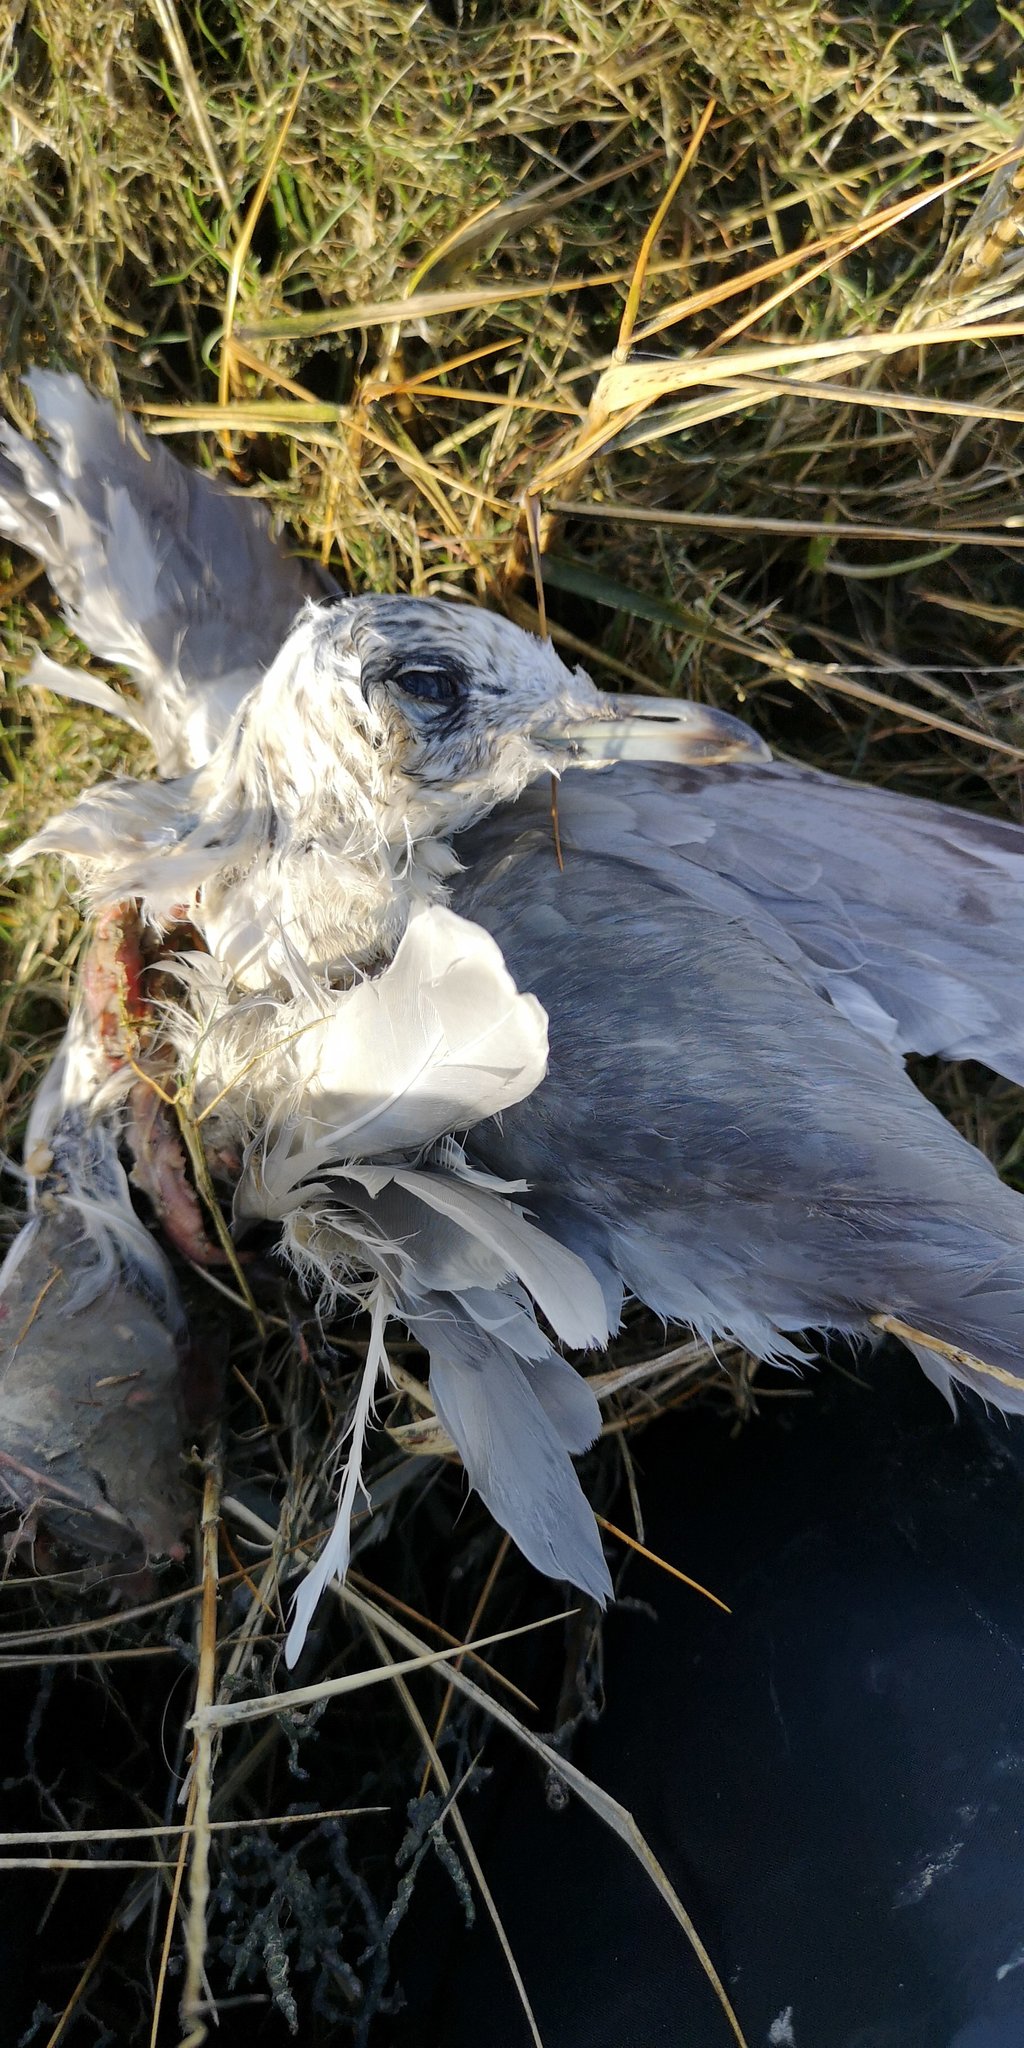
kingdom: Animalia
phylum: Chordata
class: Aves
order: Charadriiformes
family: Laridae
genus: Larus
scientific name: Larus canus
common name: Mew gull
